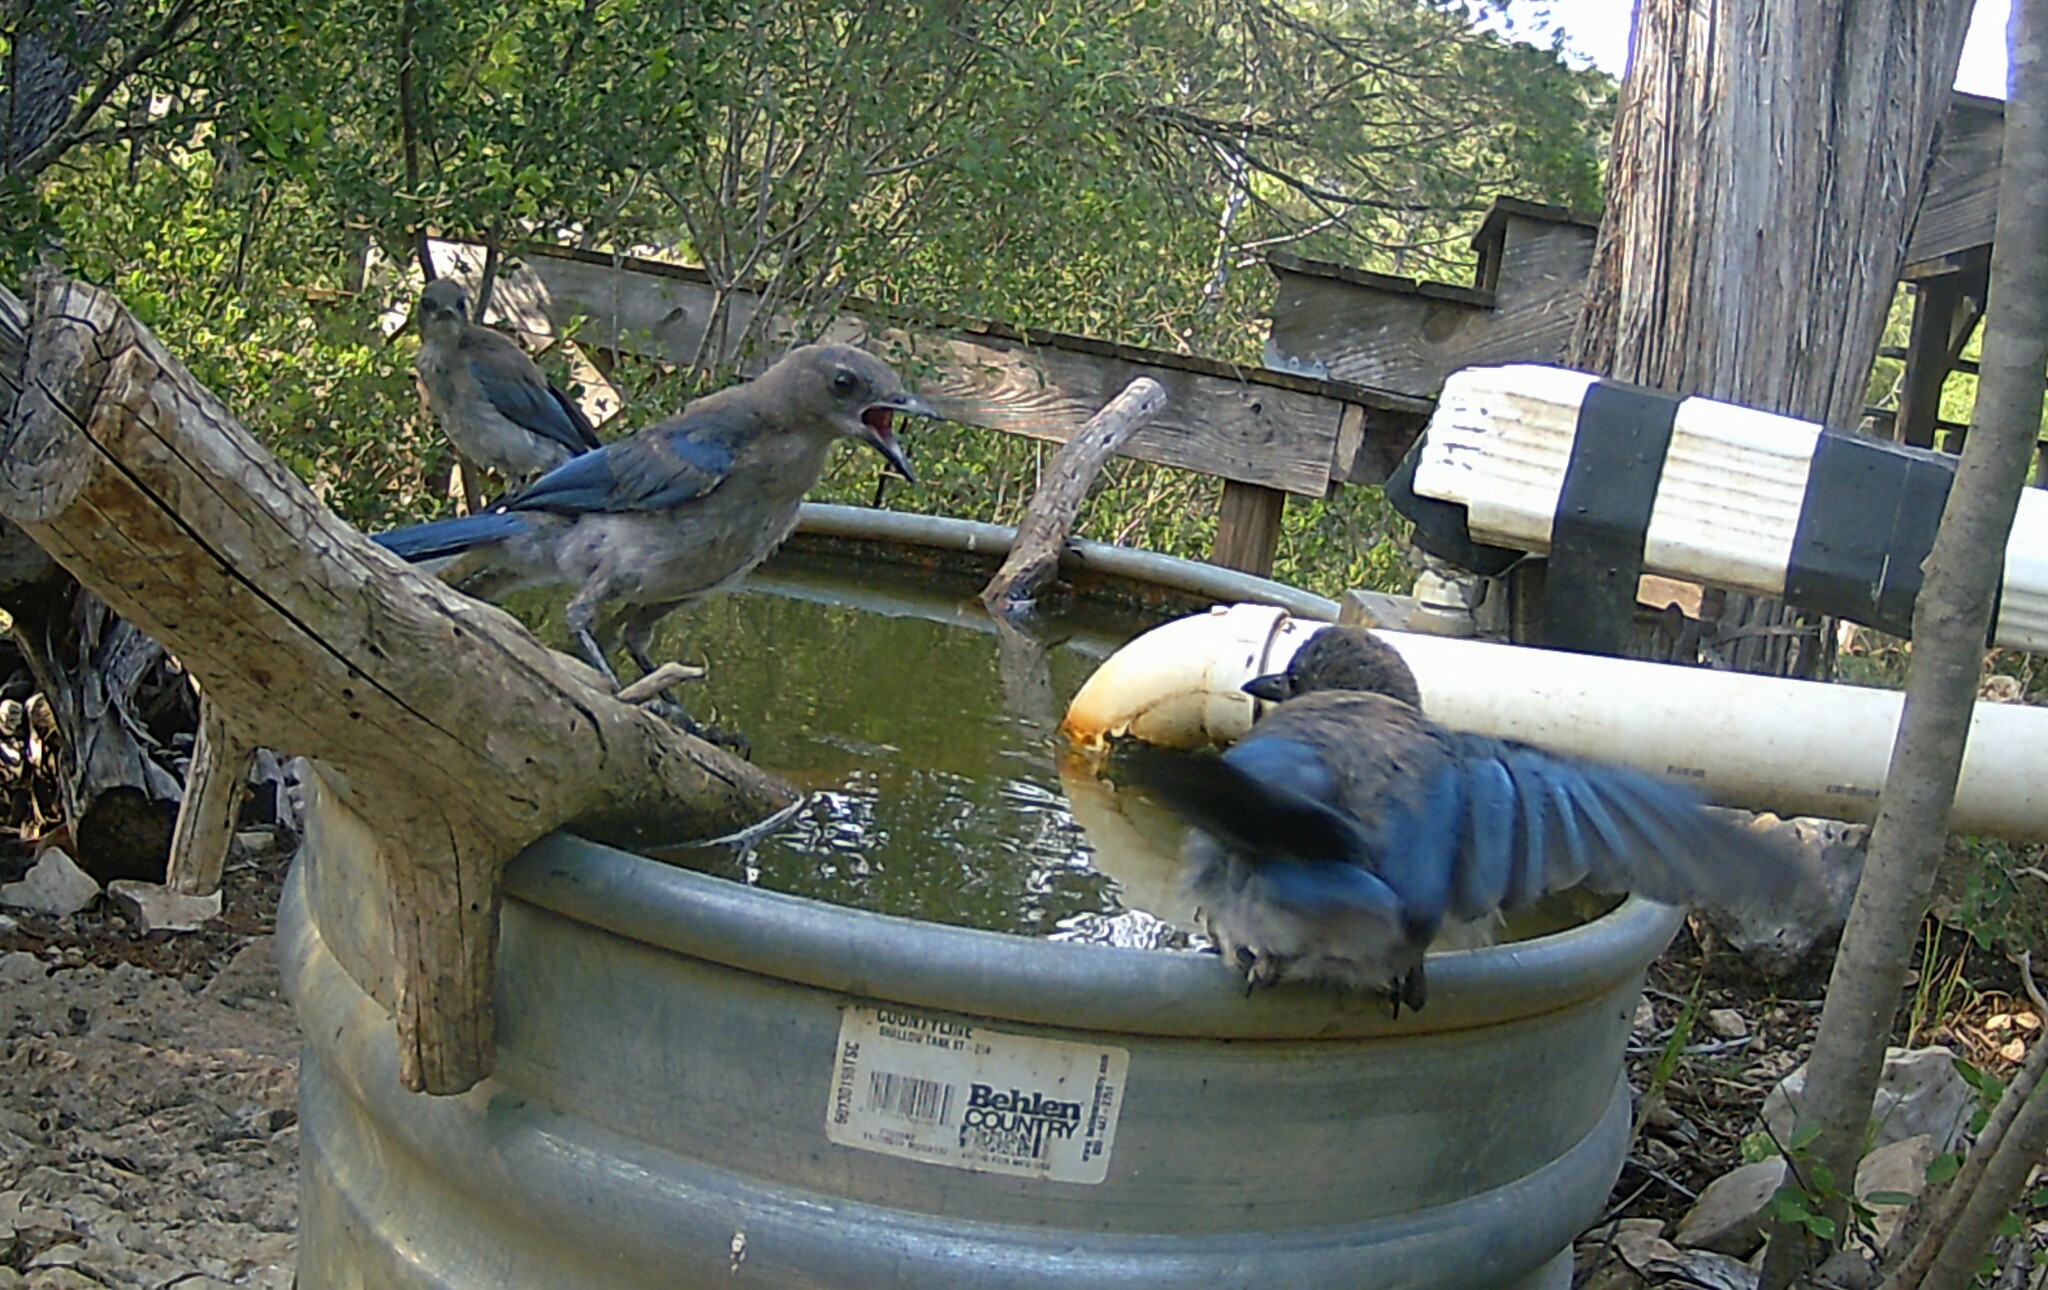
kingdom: Animalia
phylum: Chordata
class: Aves
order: Passeriformes
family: Corvidae
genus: Aphelocoma
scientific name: Aphelocoma woodhouseii
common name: Woodhouse's scrub-jay
